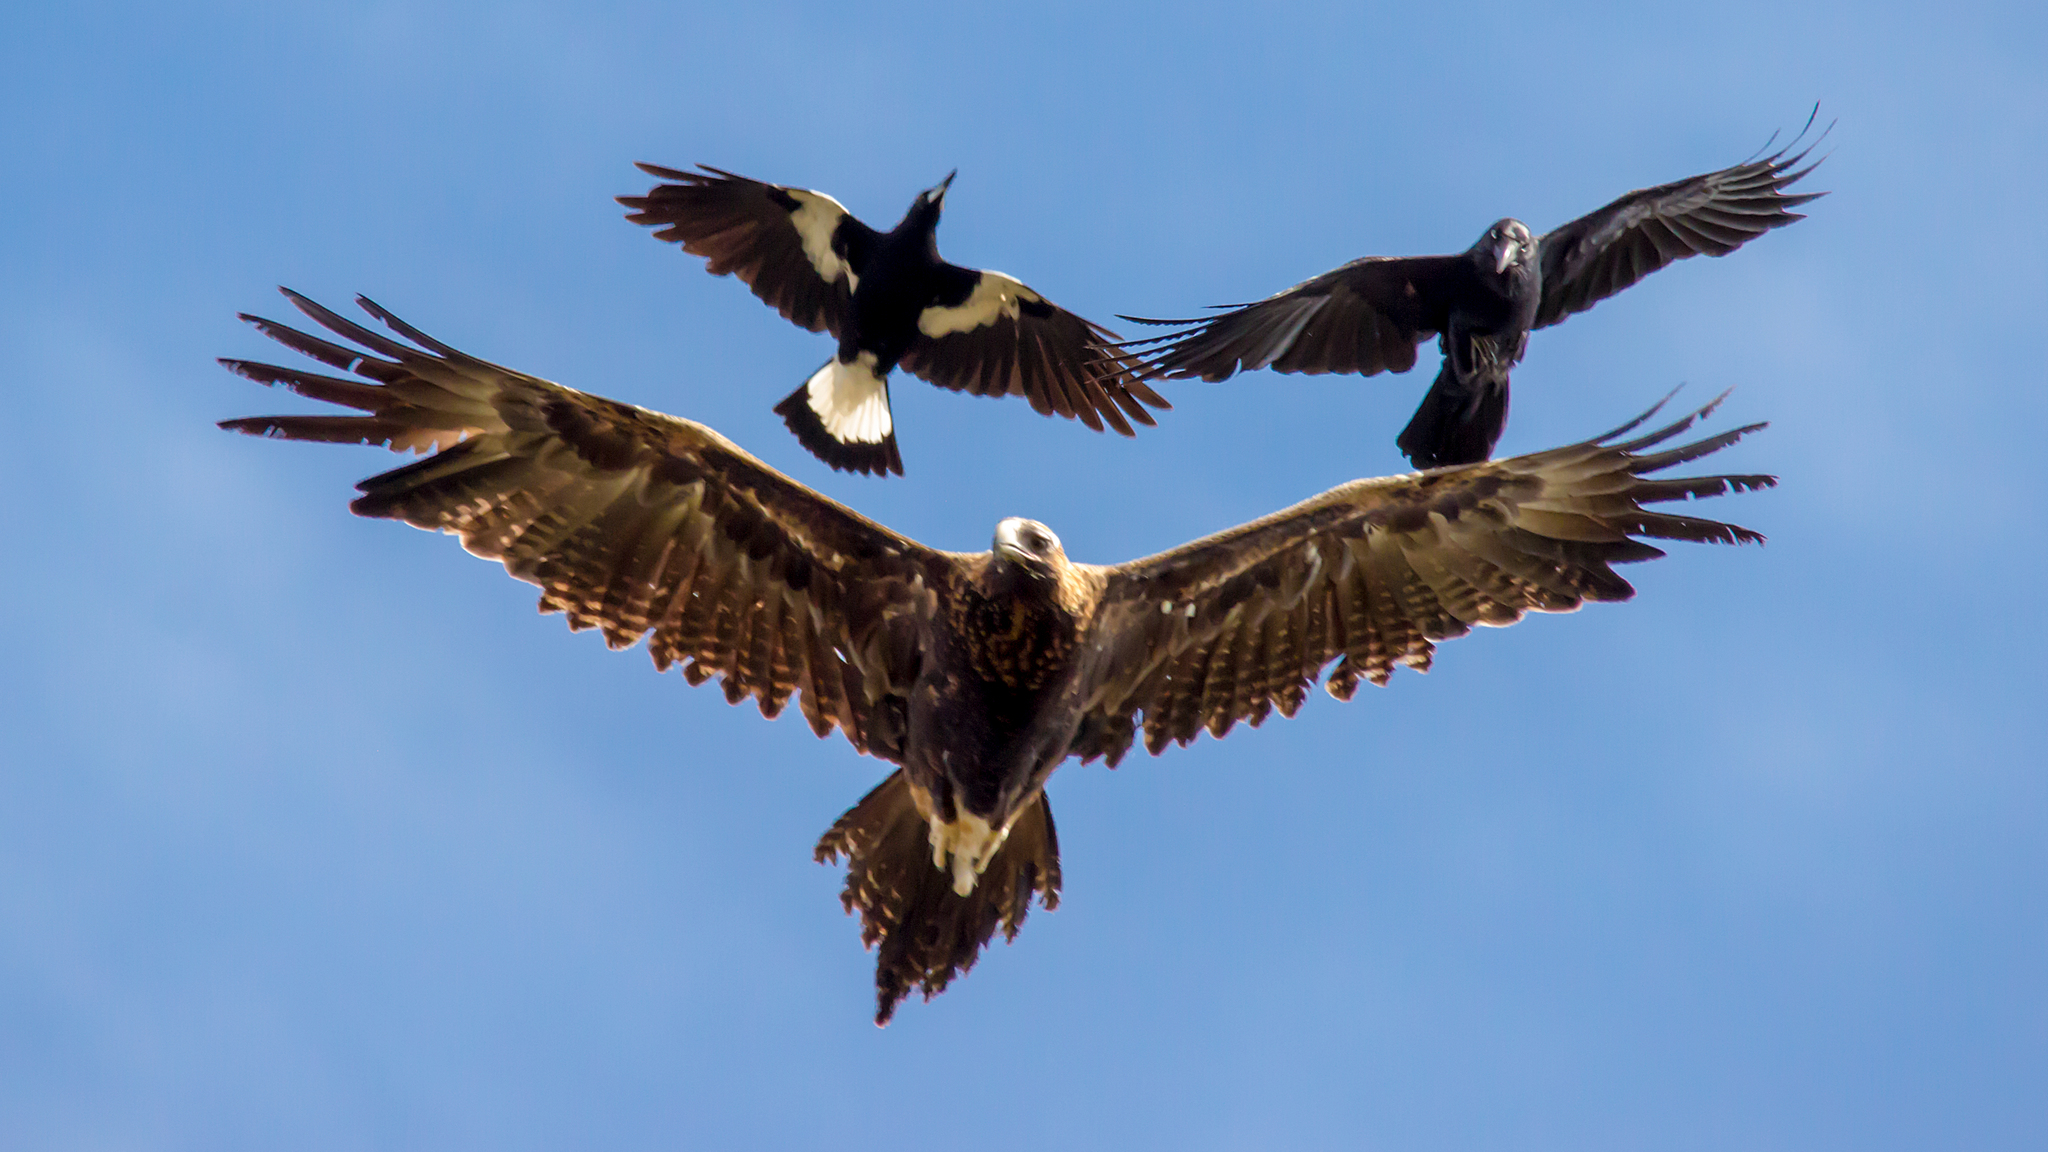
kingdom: Animalia
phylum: Chordata
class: Aves
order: Accipitriformes
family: Accipitridae
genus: Aquila
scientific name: Aquila audax
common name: Wedge-tailed eagle
